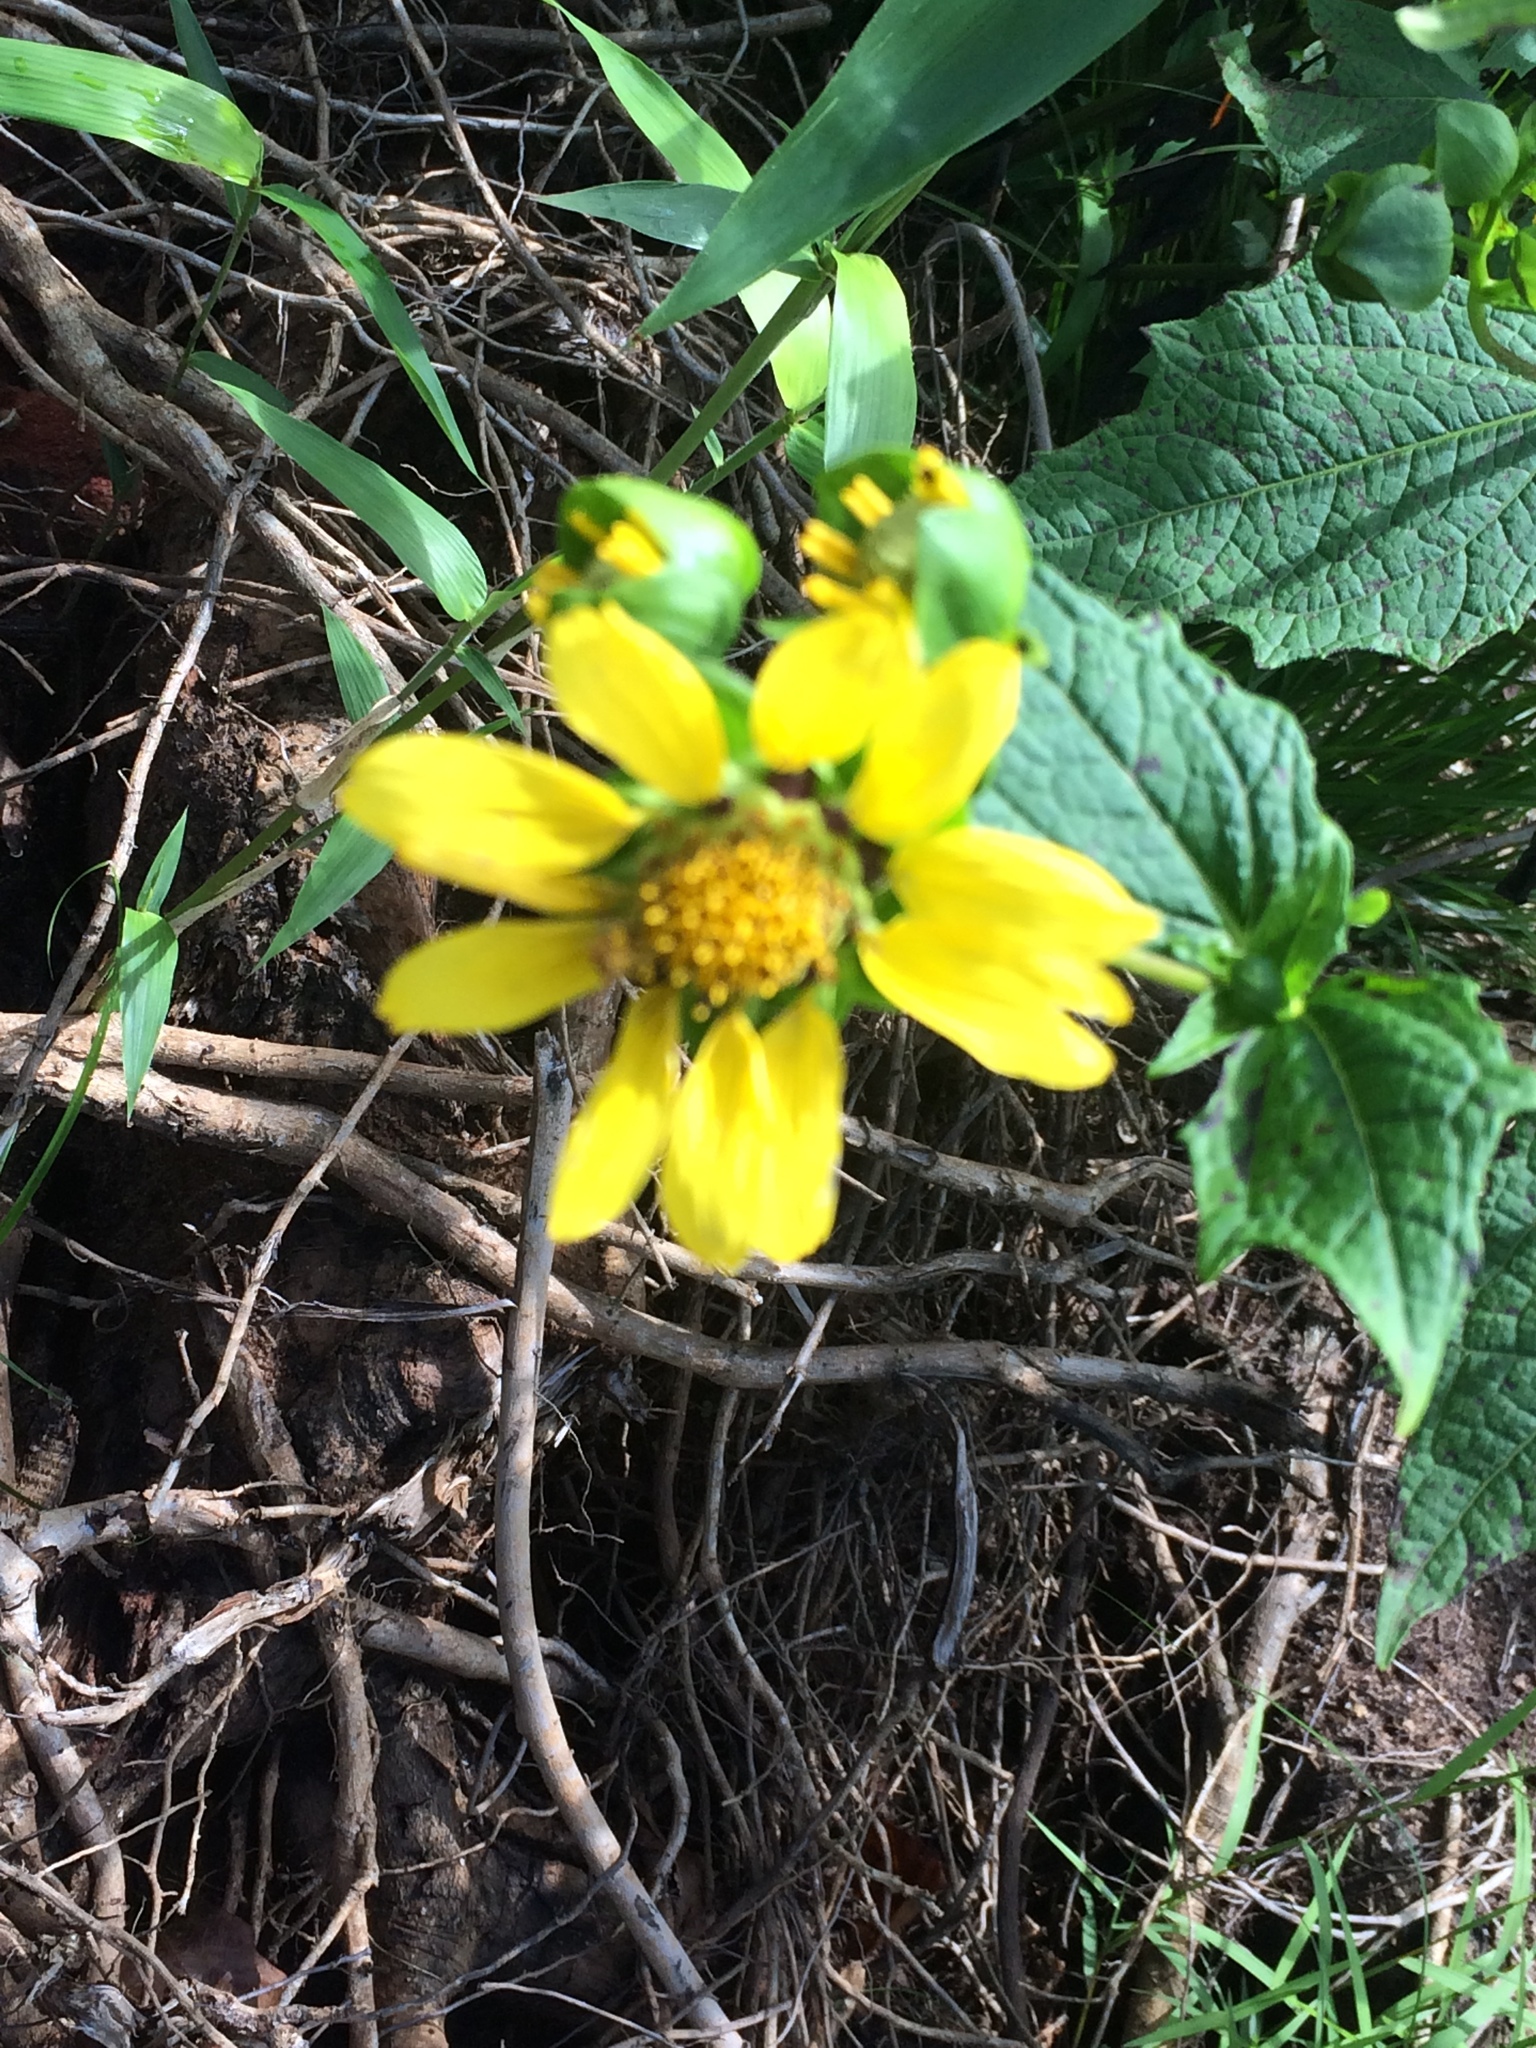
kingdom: Plantae
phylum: Tracheophyta
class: Magnoliopsida
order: Asterales
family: Asteraceae
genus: Smallanthus
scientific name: Smallanthus uvedalia
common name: Bear's-foot
